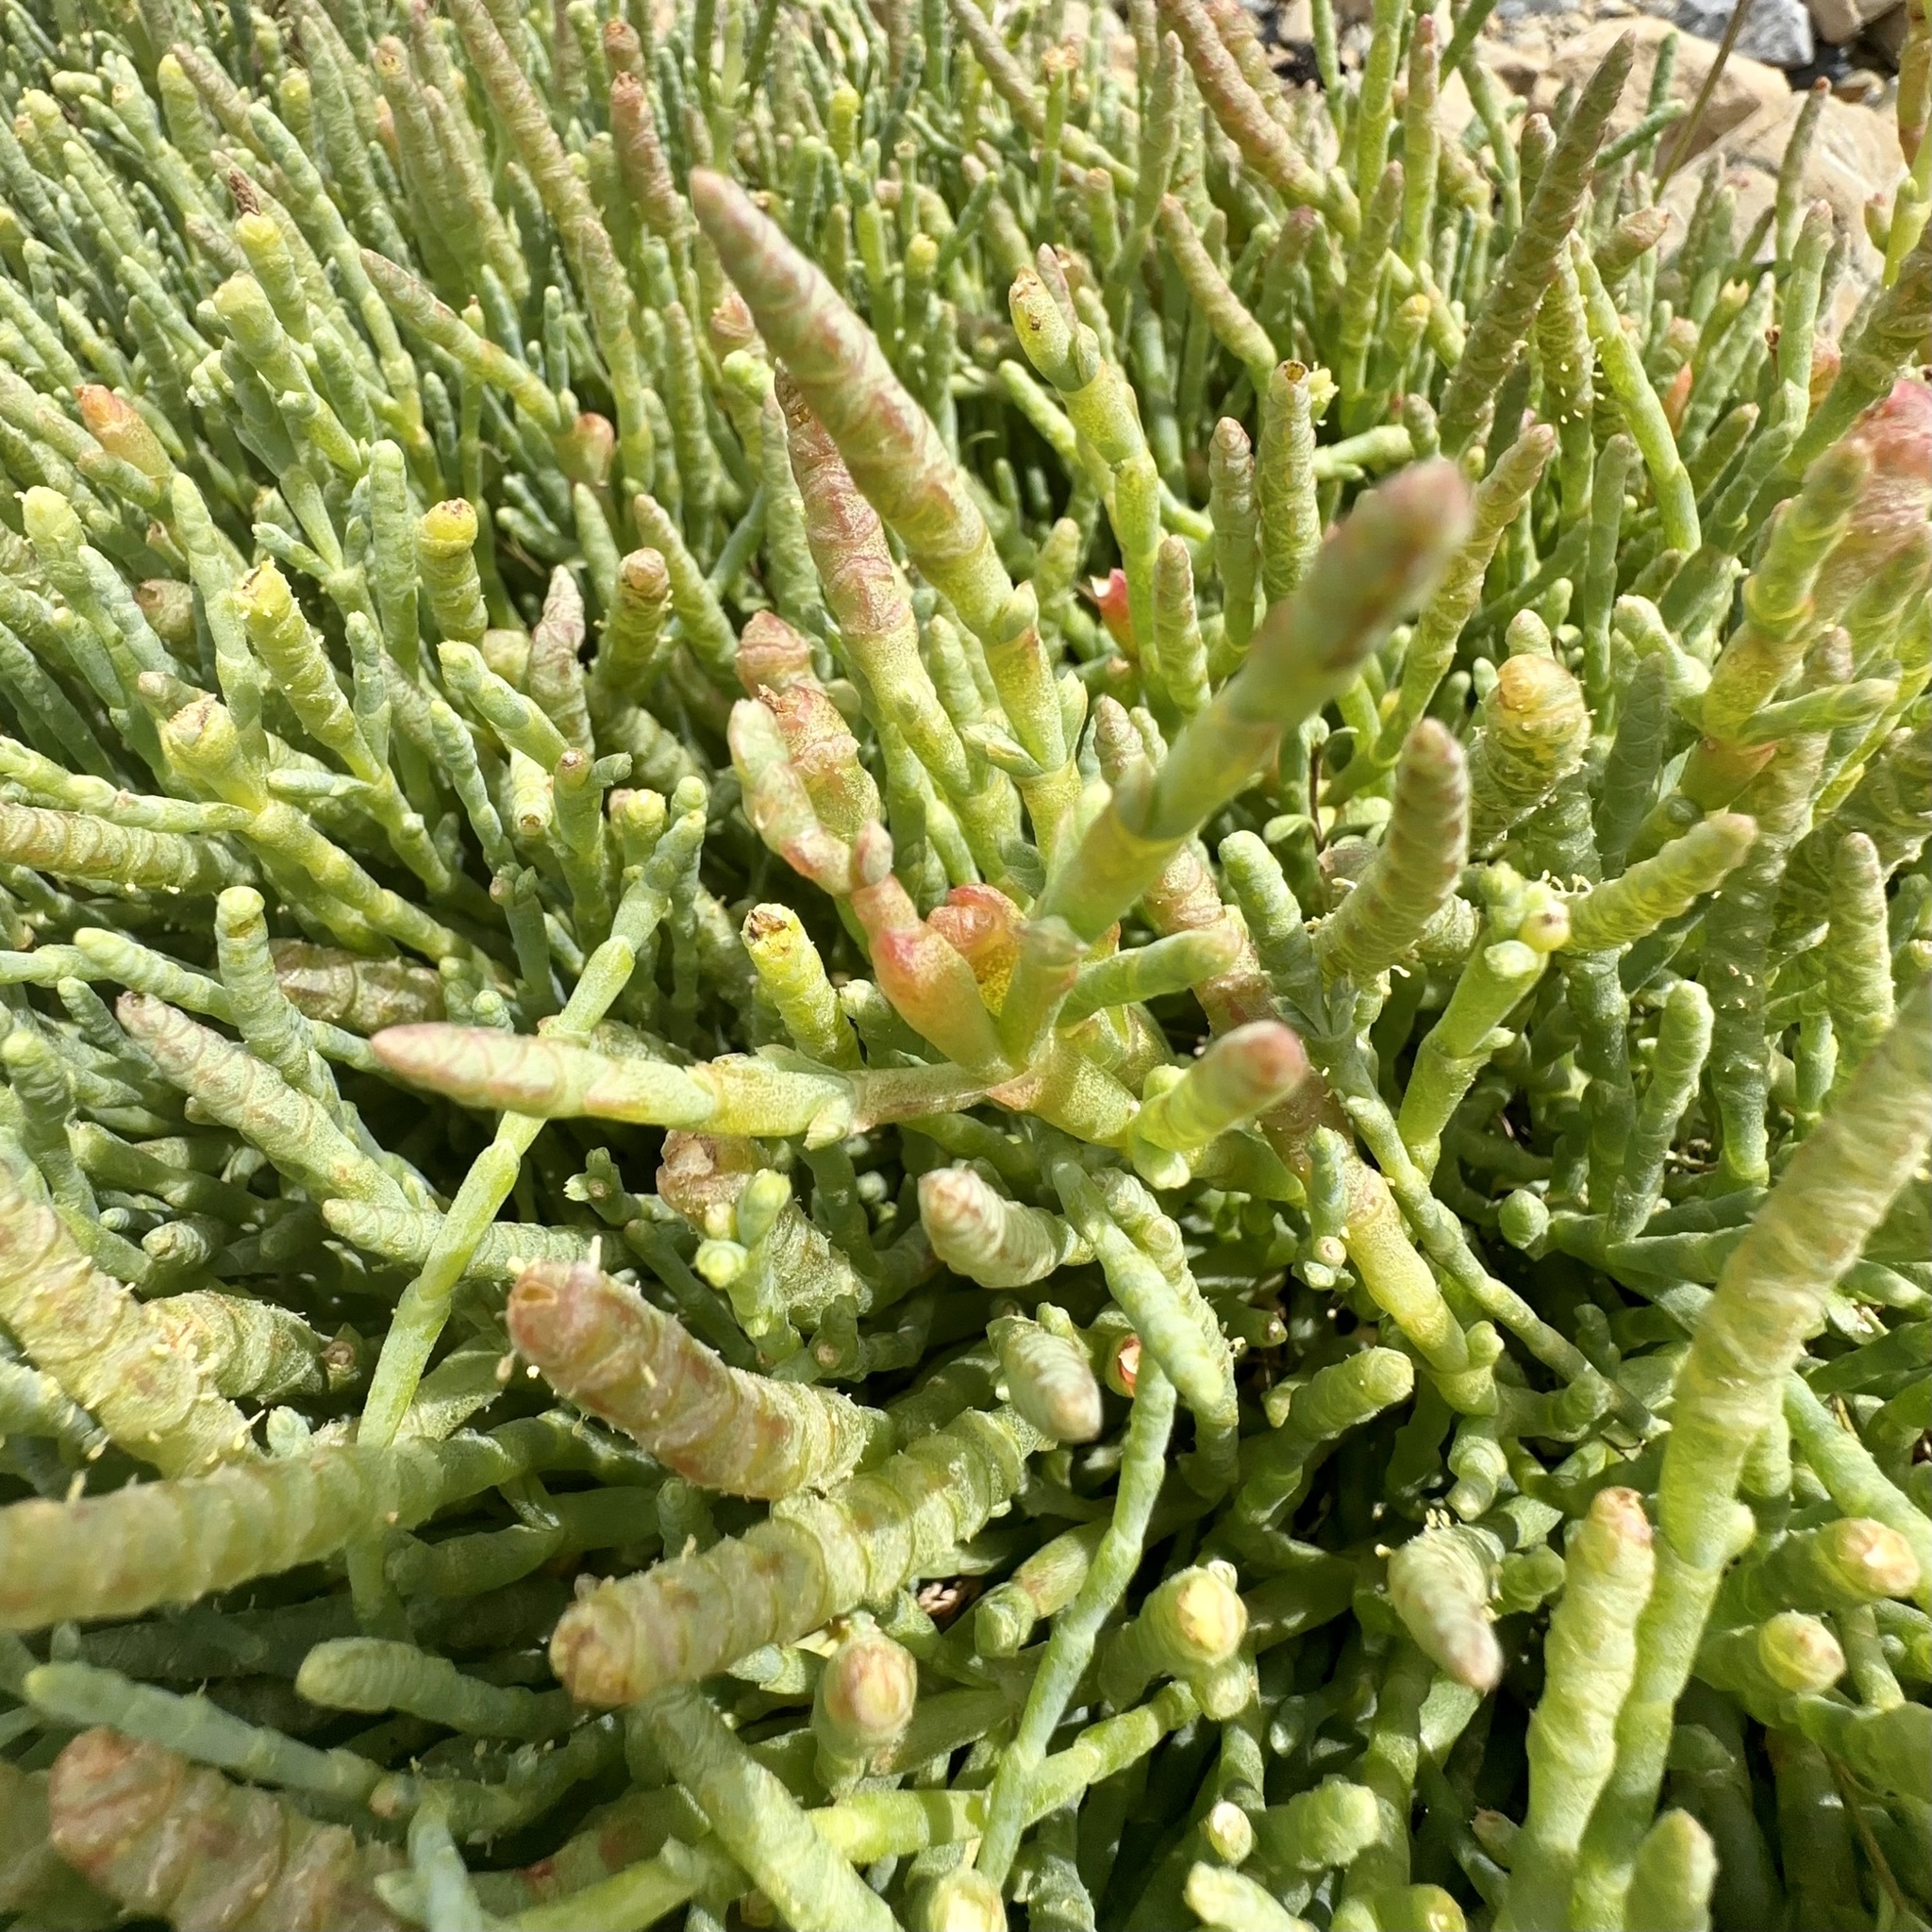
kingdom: Plantae
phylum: Tracheophyta
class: Magnoliopsida
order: Caryophyllales
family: Amaranthaceae
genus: Salicornia
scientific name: Salicornia quinqueflora
